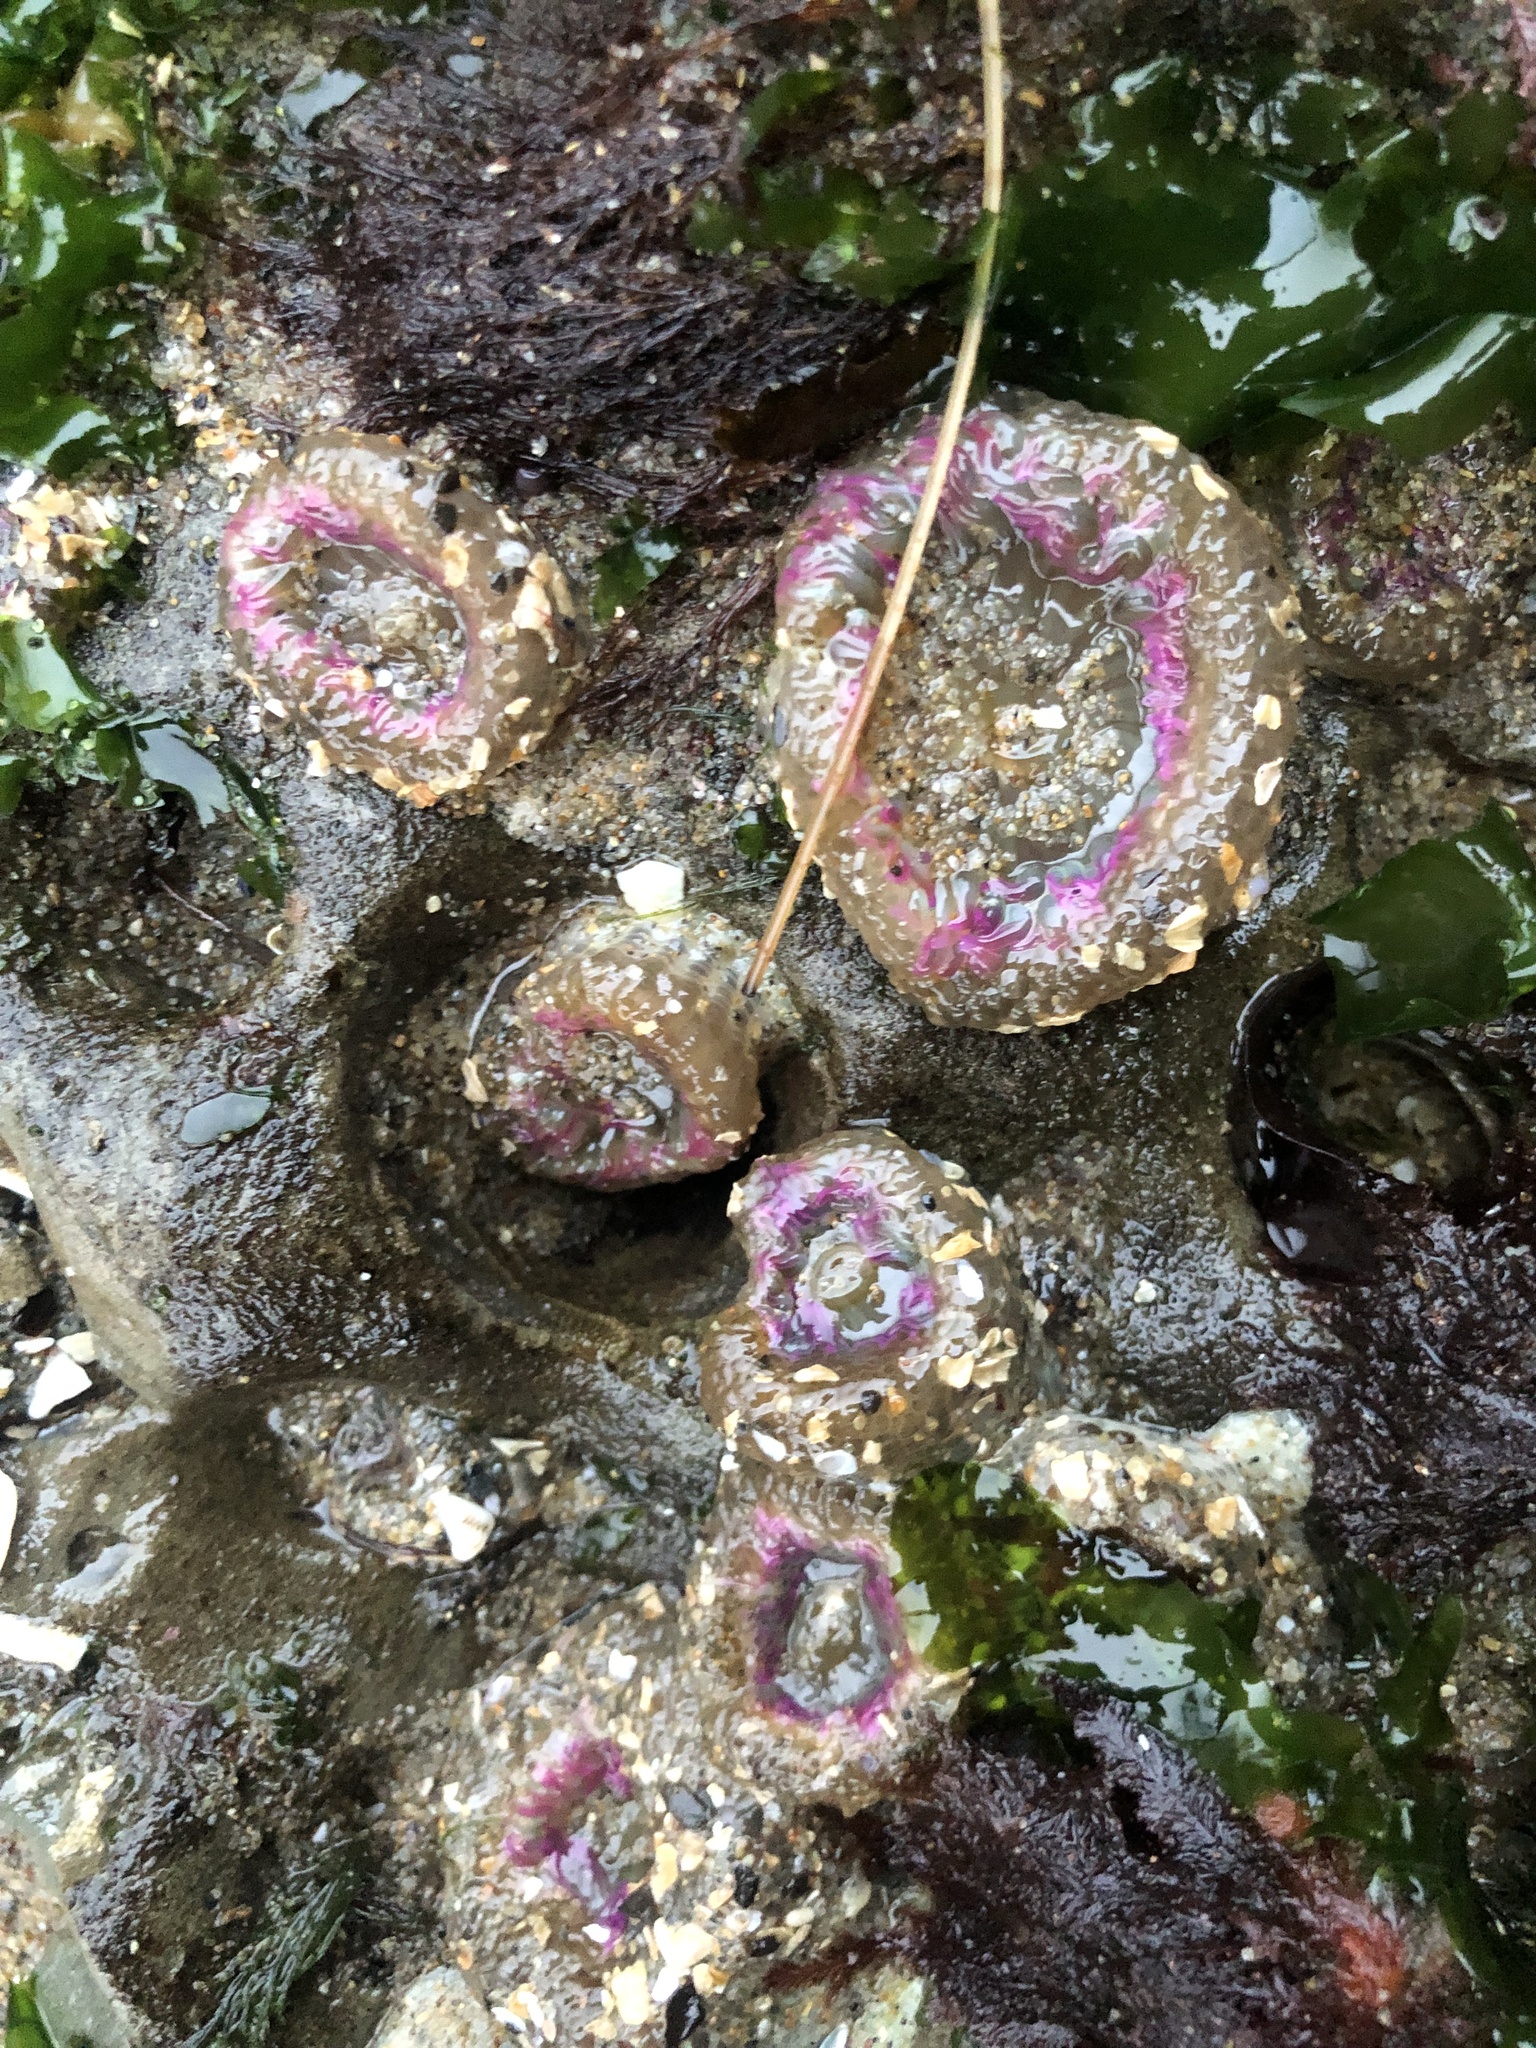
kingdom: Animalia
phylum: Cnidaria
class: Anthozoa
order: Actiniaria
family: Actiniidae
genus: Anthopleura
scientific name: Anthopleura elegantissima
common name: Clonal anemone
